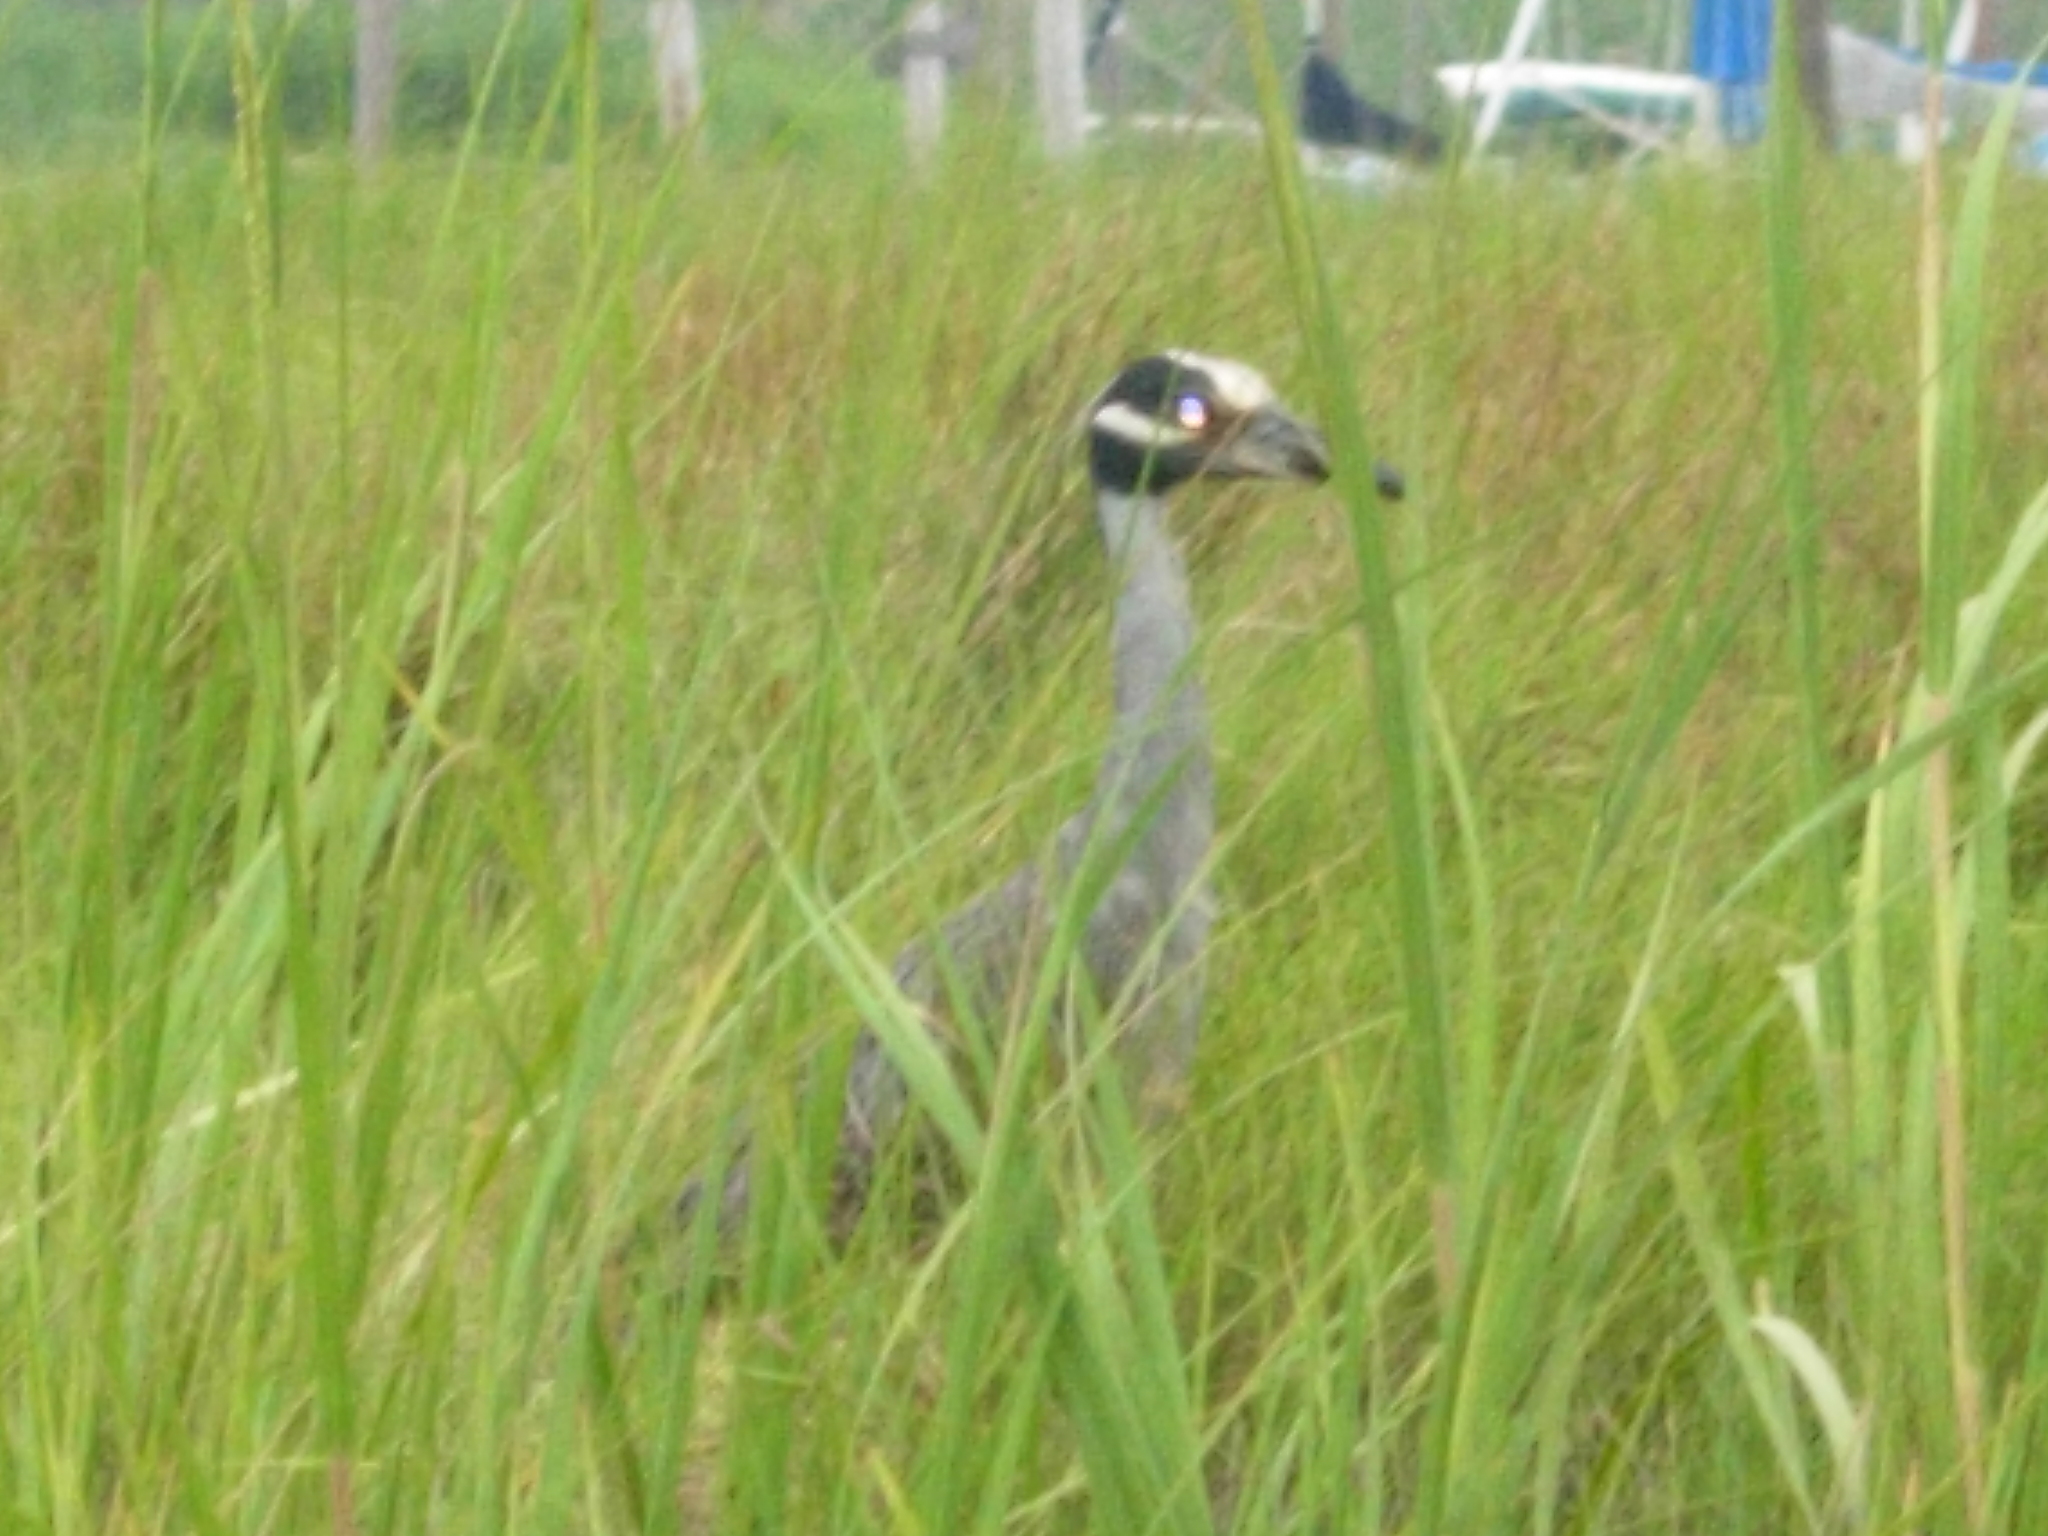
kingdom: Animalia
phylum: Chordata
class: Aves
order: Pelecaniformes
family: Ardeidae
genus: Nyctanassa
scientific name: Nyctanassa violacea
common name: Yellow-crowned night heron
